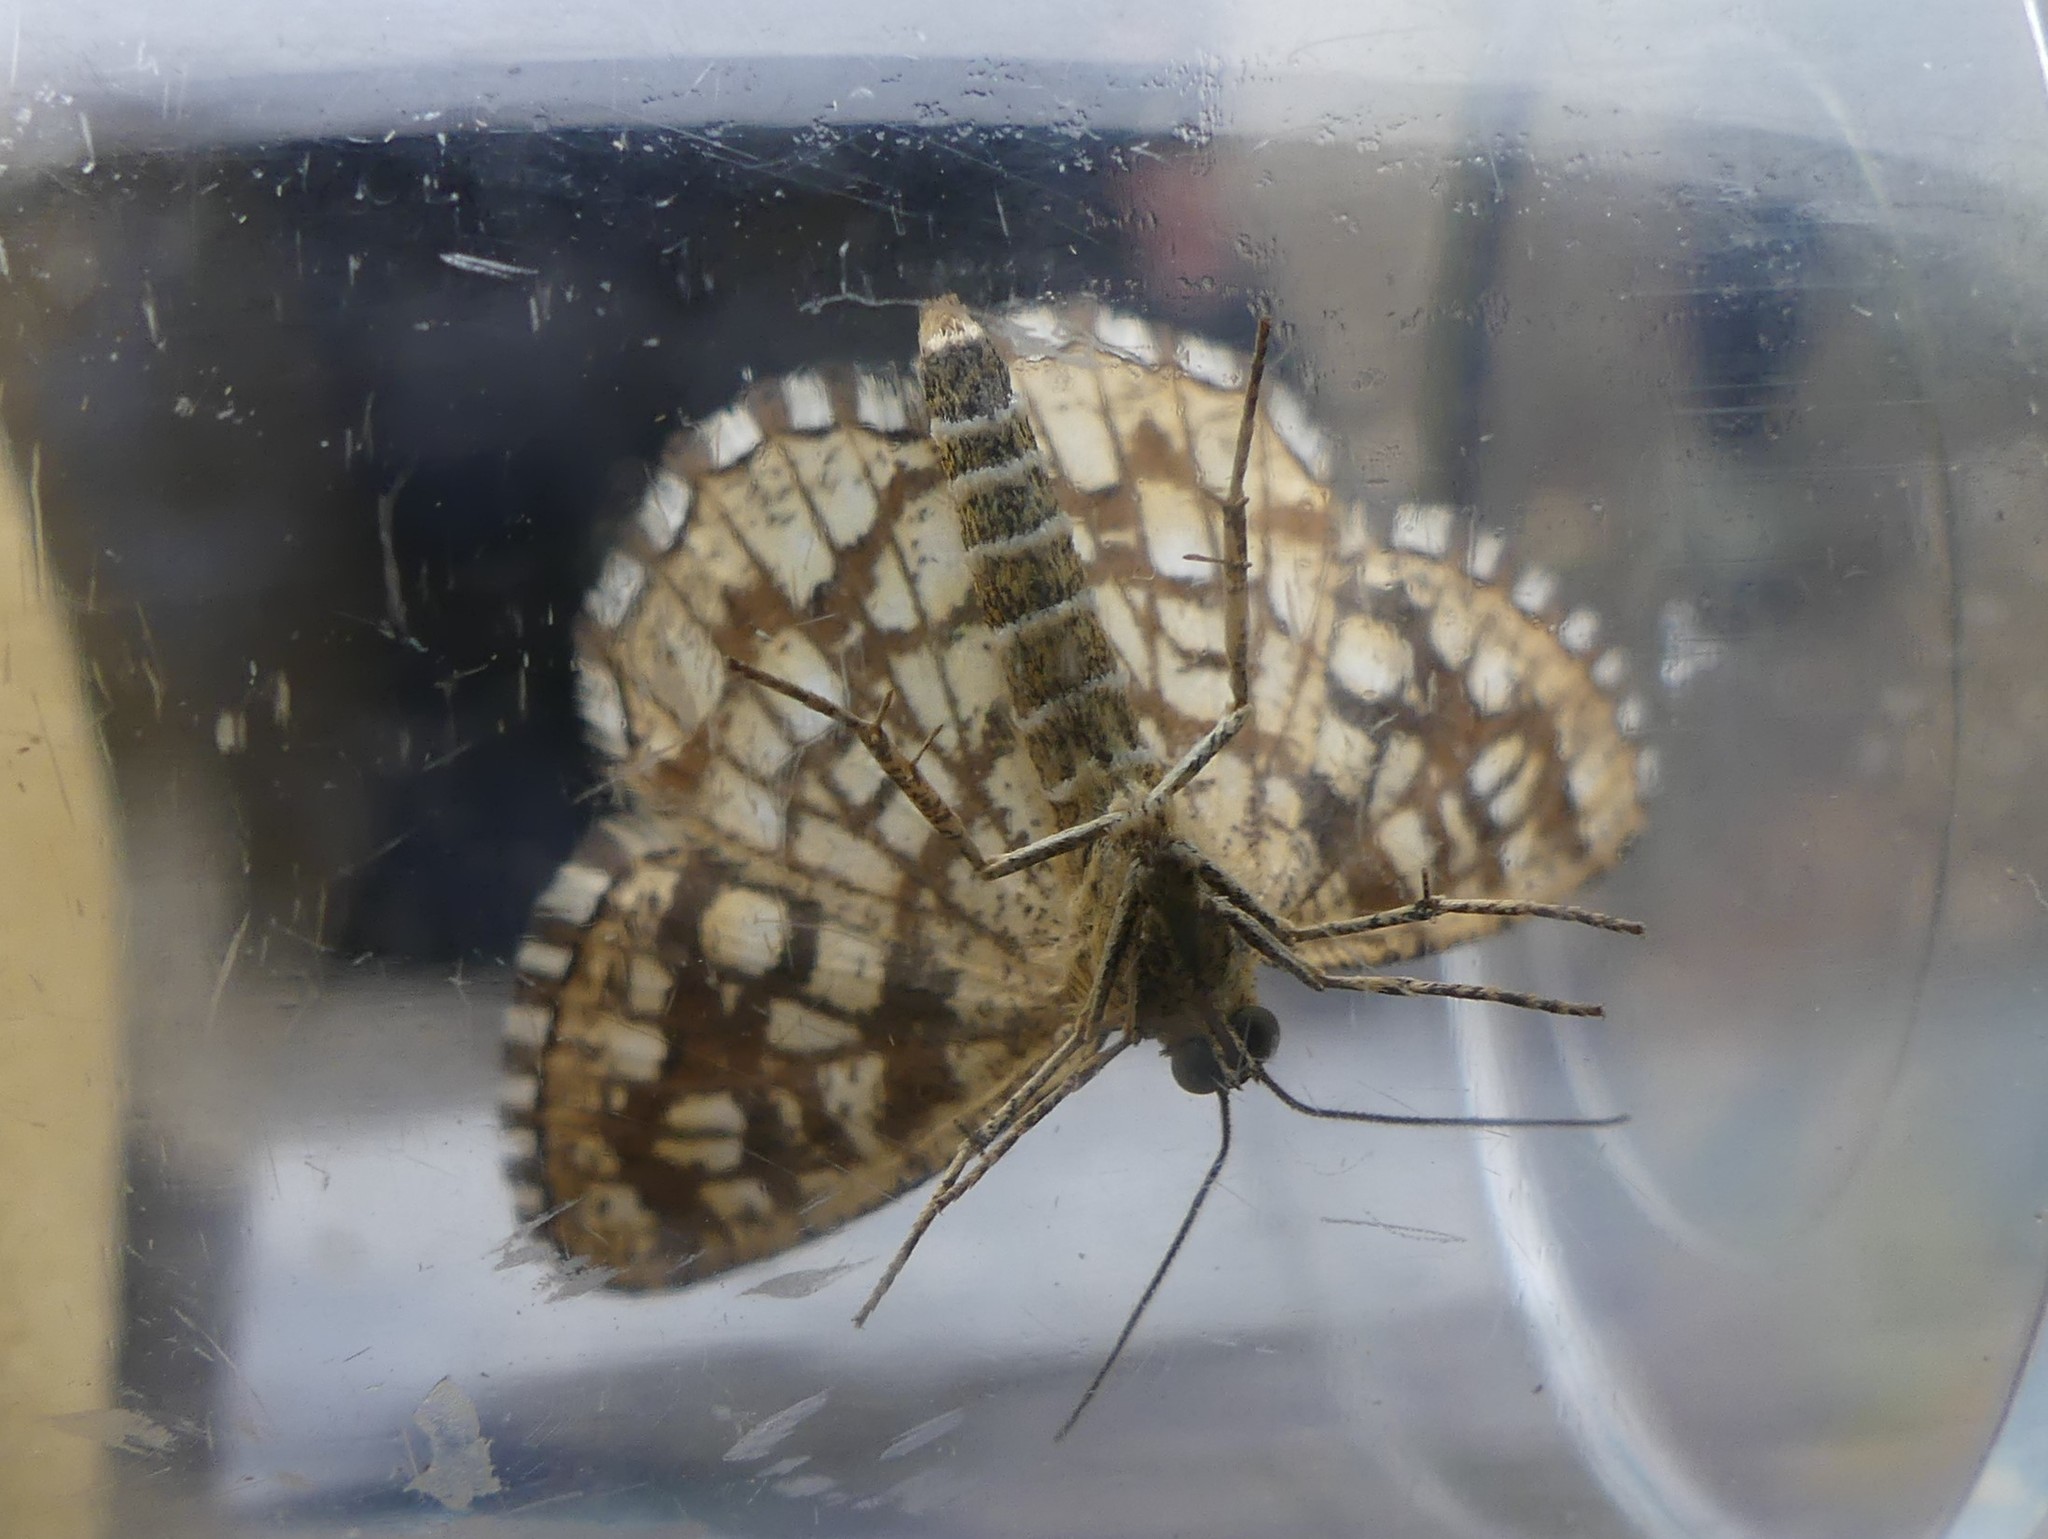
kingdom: Animalia
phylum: Arthropoda
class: Insecta
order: Lepidoptera
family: Geometridae
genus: Chiasmia
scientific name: Chiasmia clathrata
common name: Latticed heath
